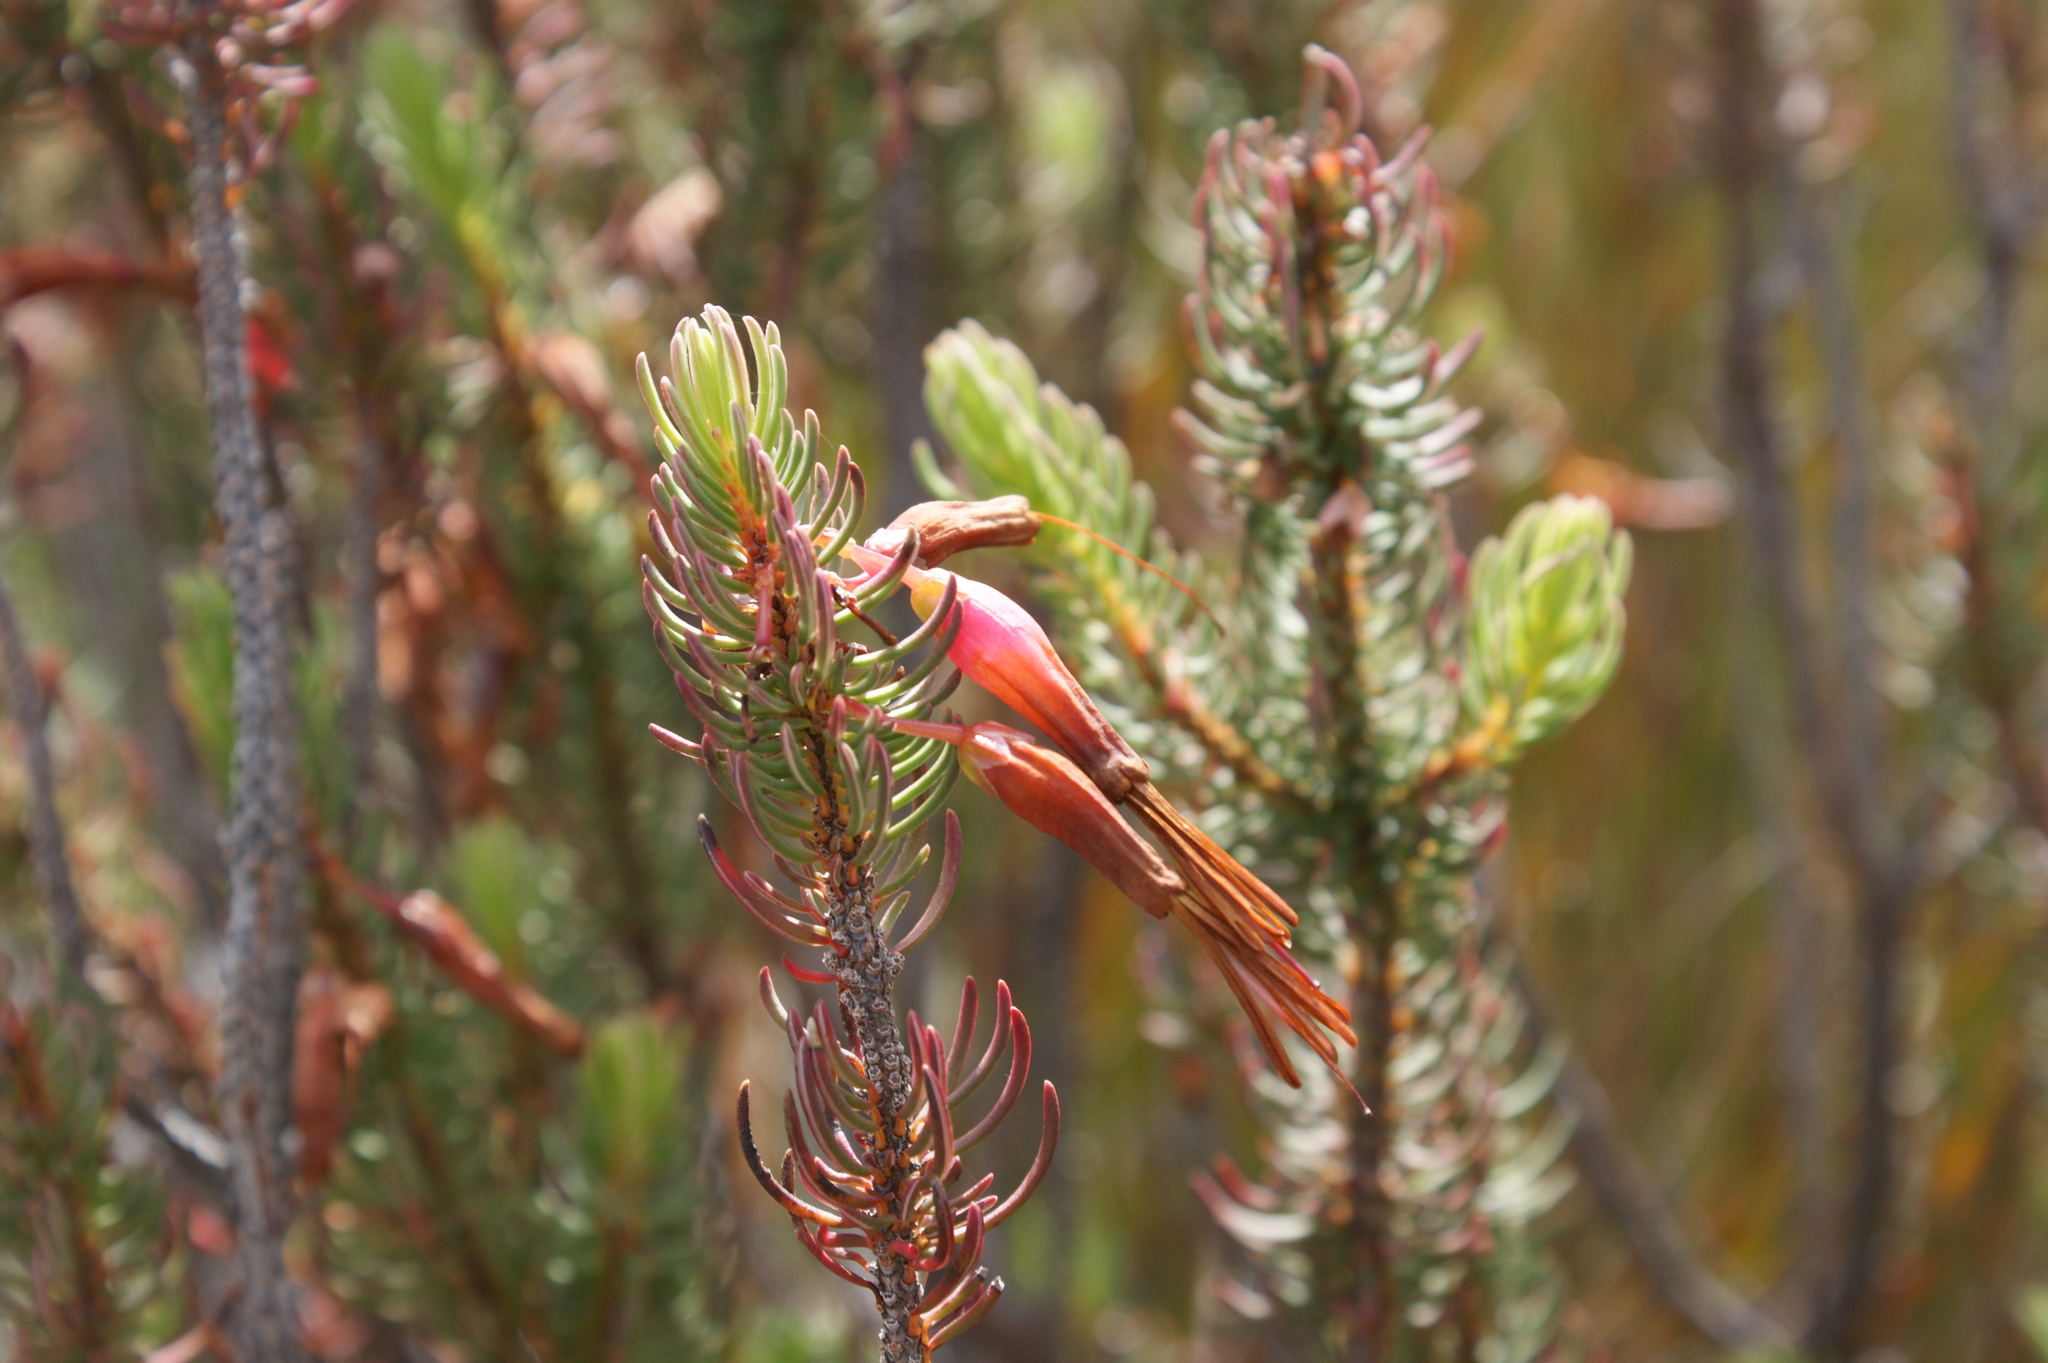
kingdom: Plantae
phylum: Tracheophyta
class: Magnoliopsida
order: Ericales
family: Ericaceae
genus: Erica
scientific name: Erica plukenetii
